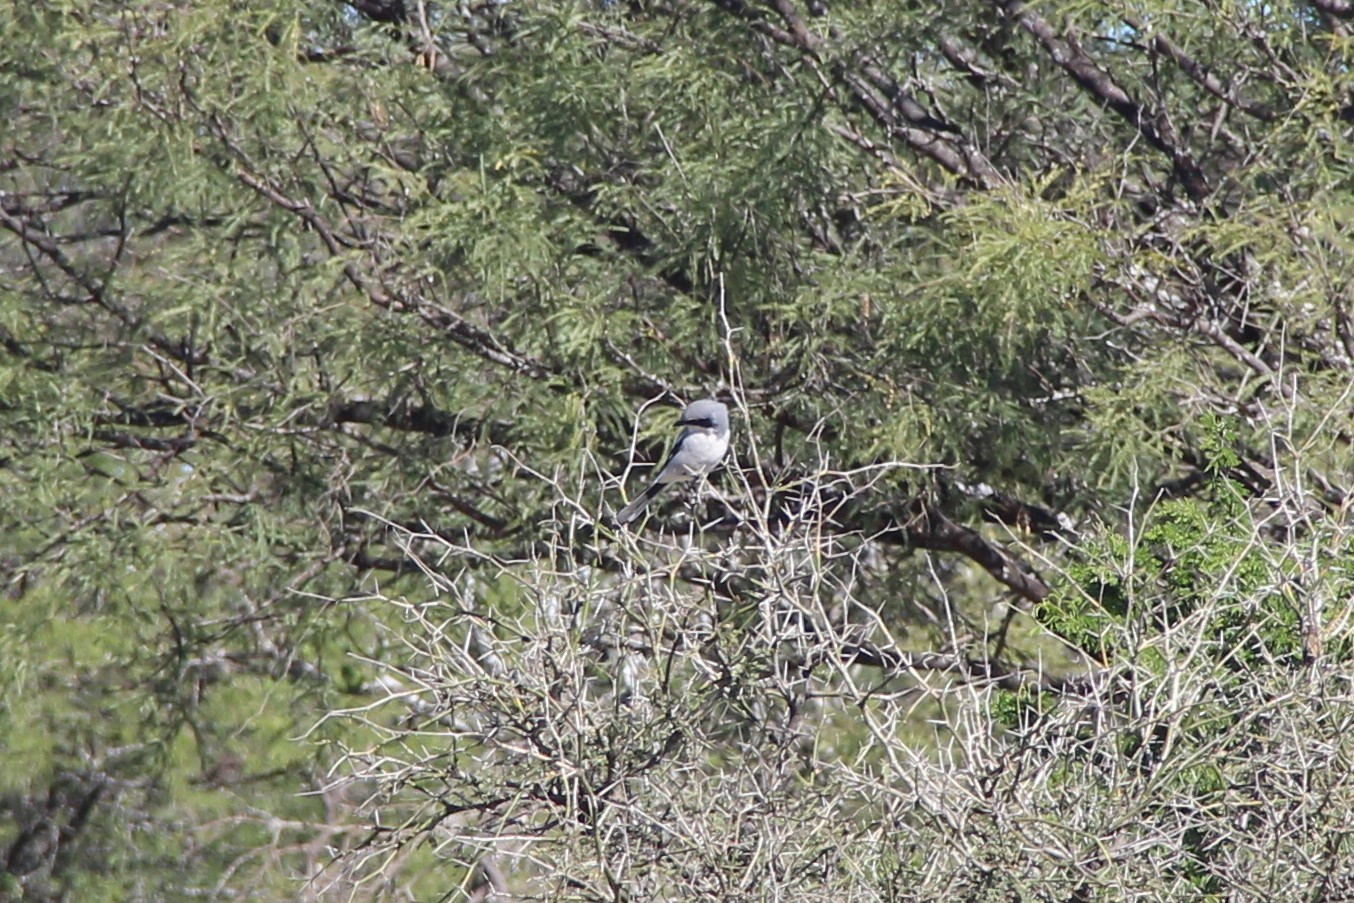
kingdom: Animalia
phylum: Chordata
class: Aves
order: Passeriformes
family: Laniidae
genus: Lanius
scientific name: Lanius ludovicianus
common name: Loggerhead shrike
